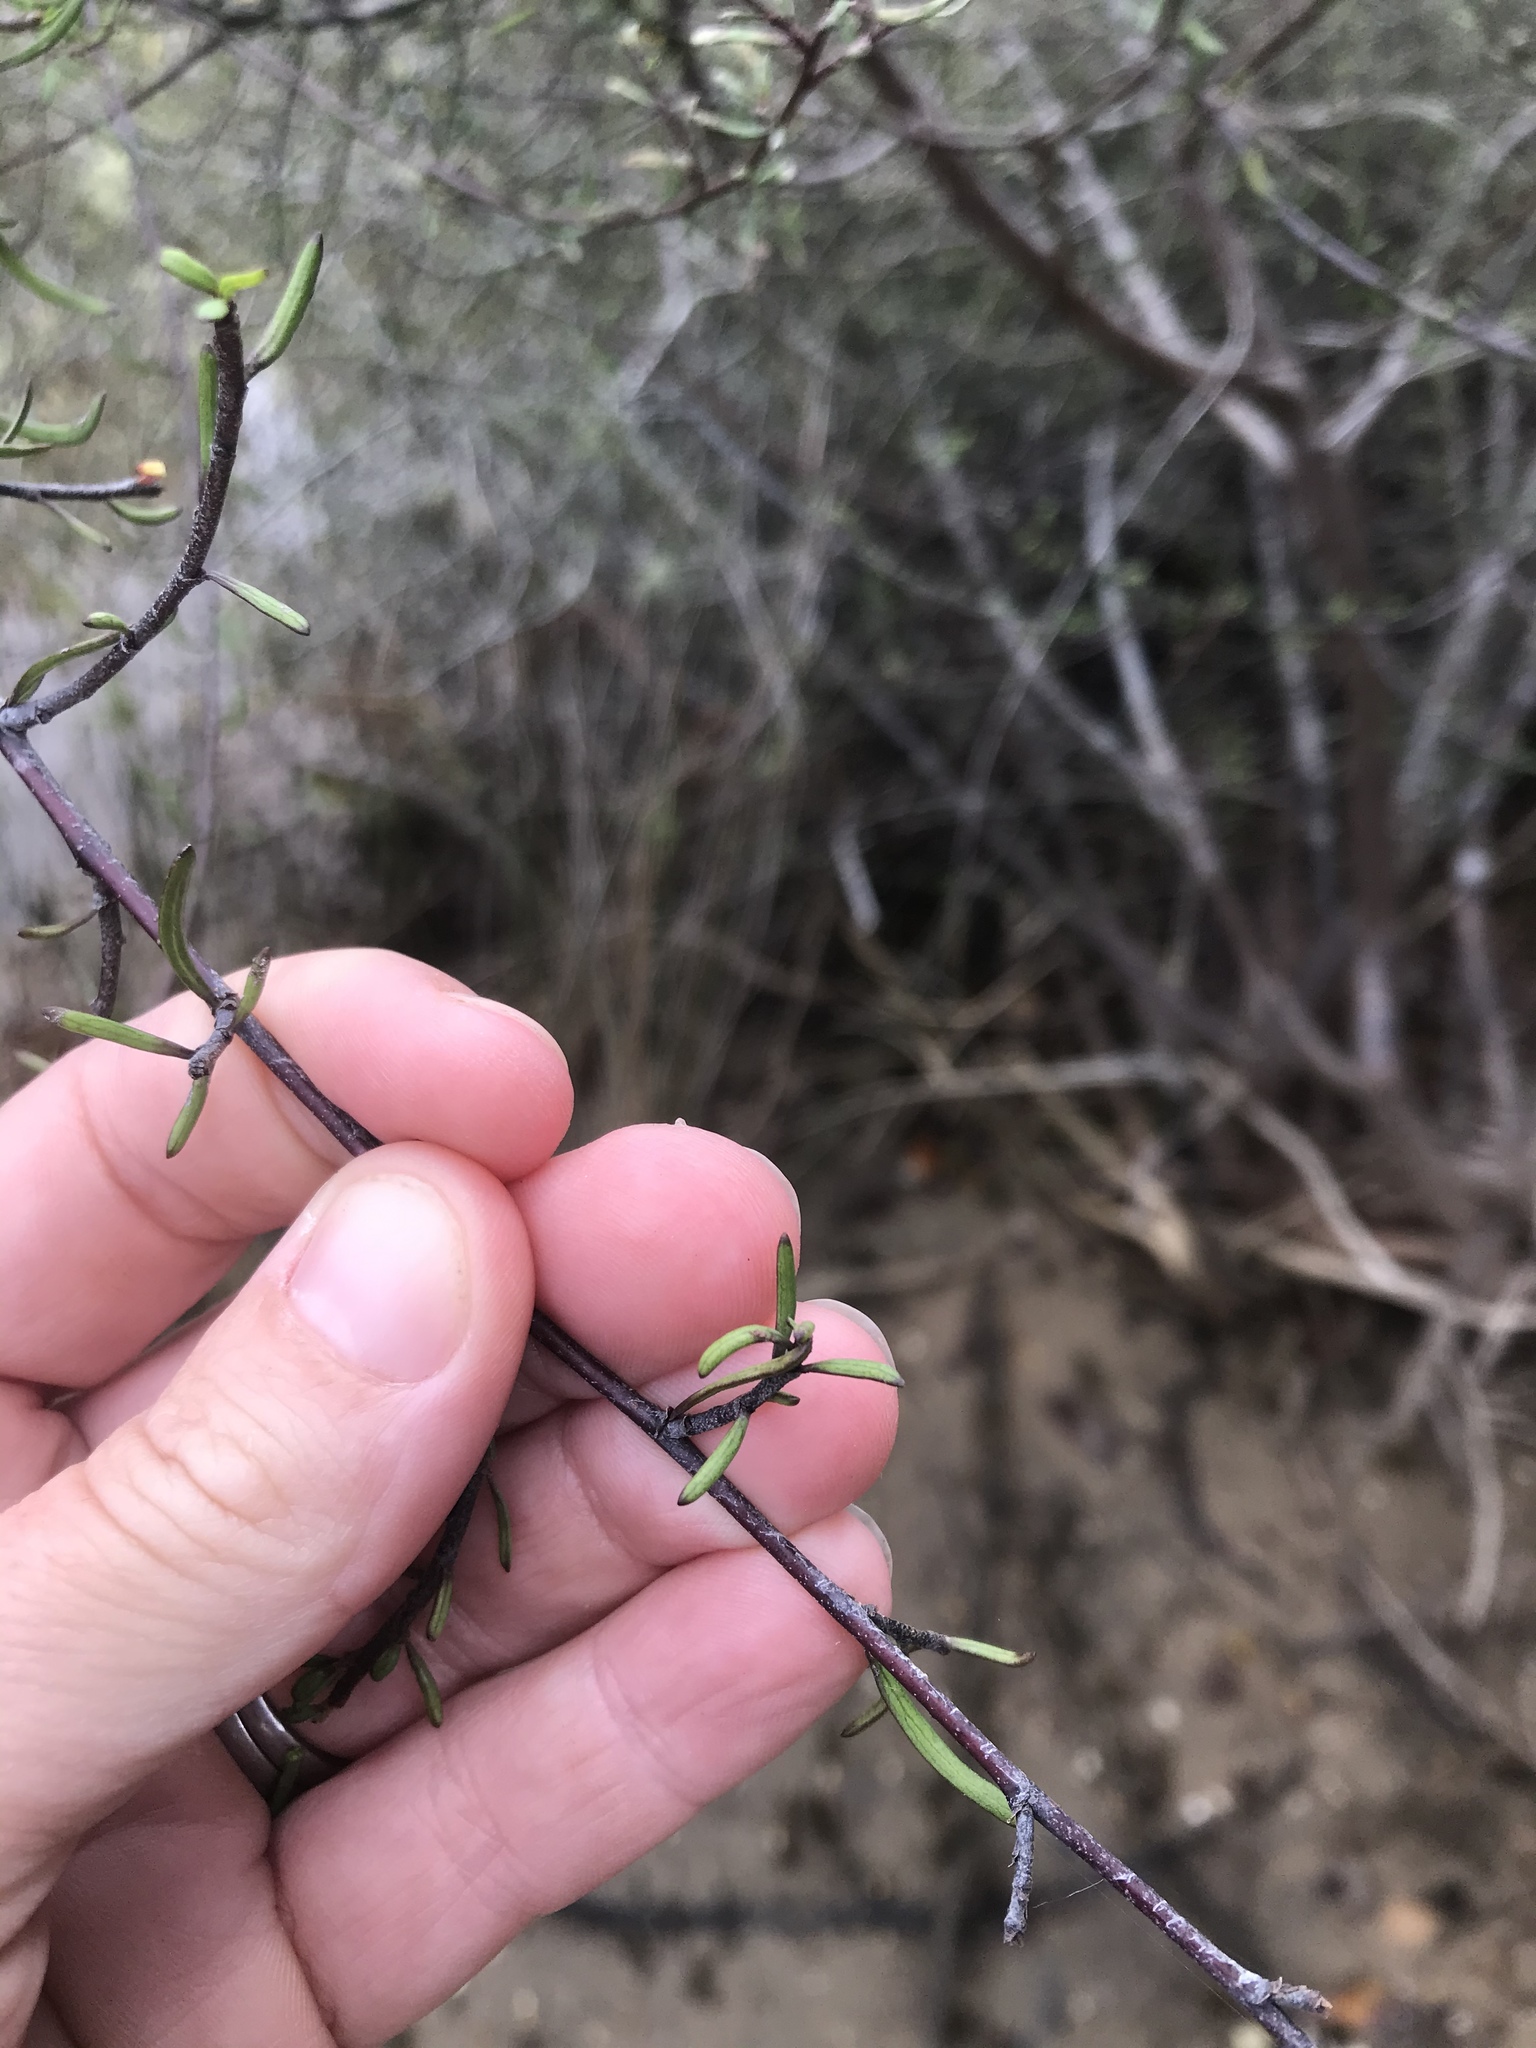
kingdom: Plantae
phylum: Tracheophyta
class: Magnoliopsida
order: Malvales
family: Malvaceae
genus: Plagianthus
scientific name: Plagianthus divaricatus
